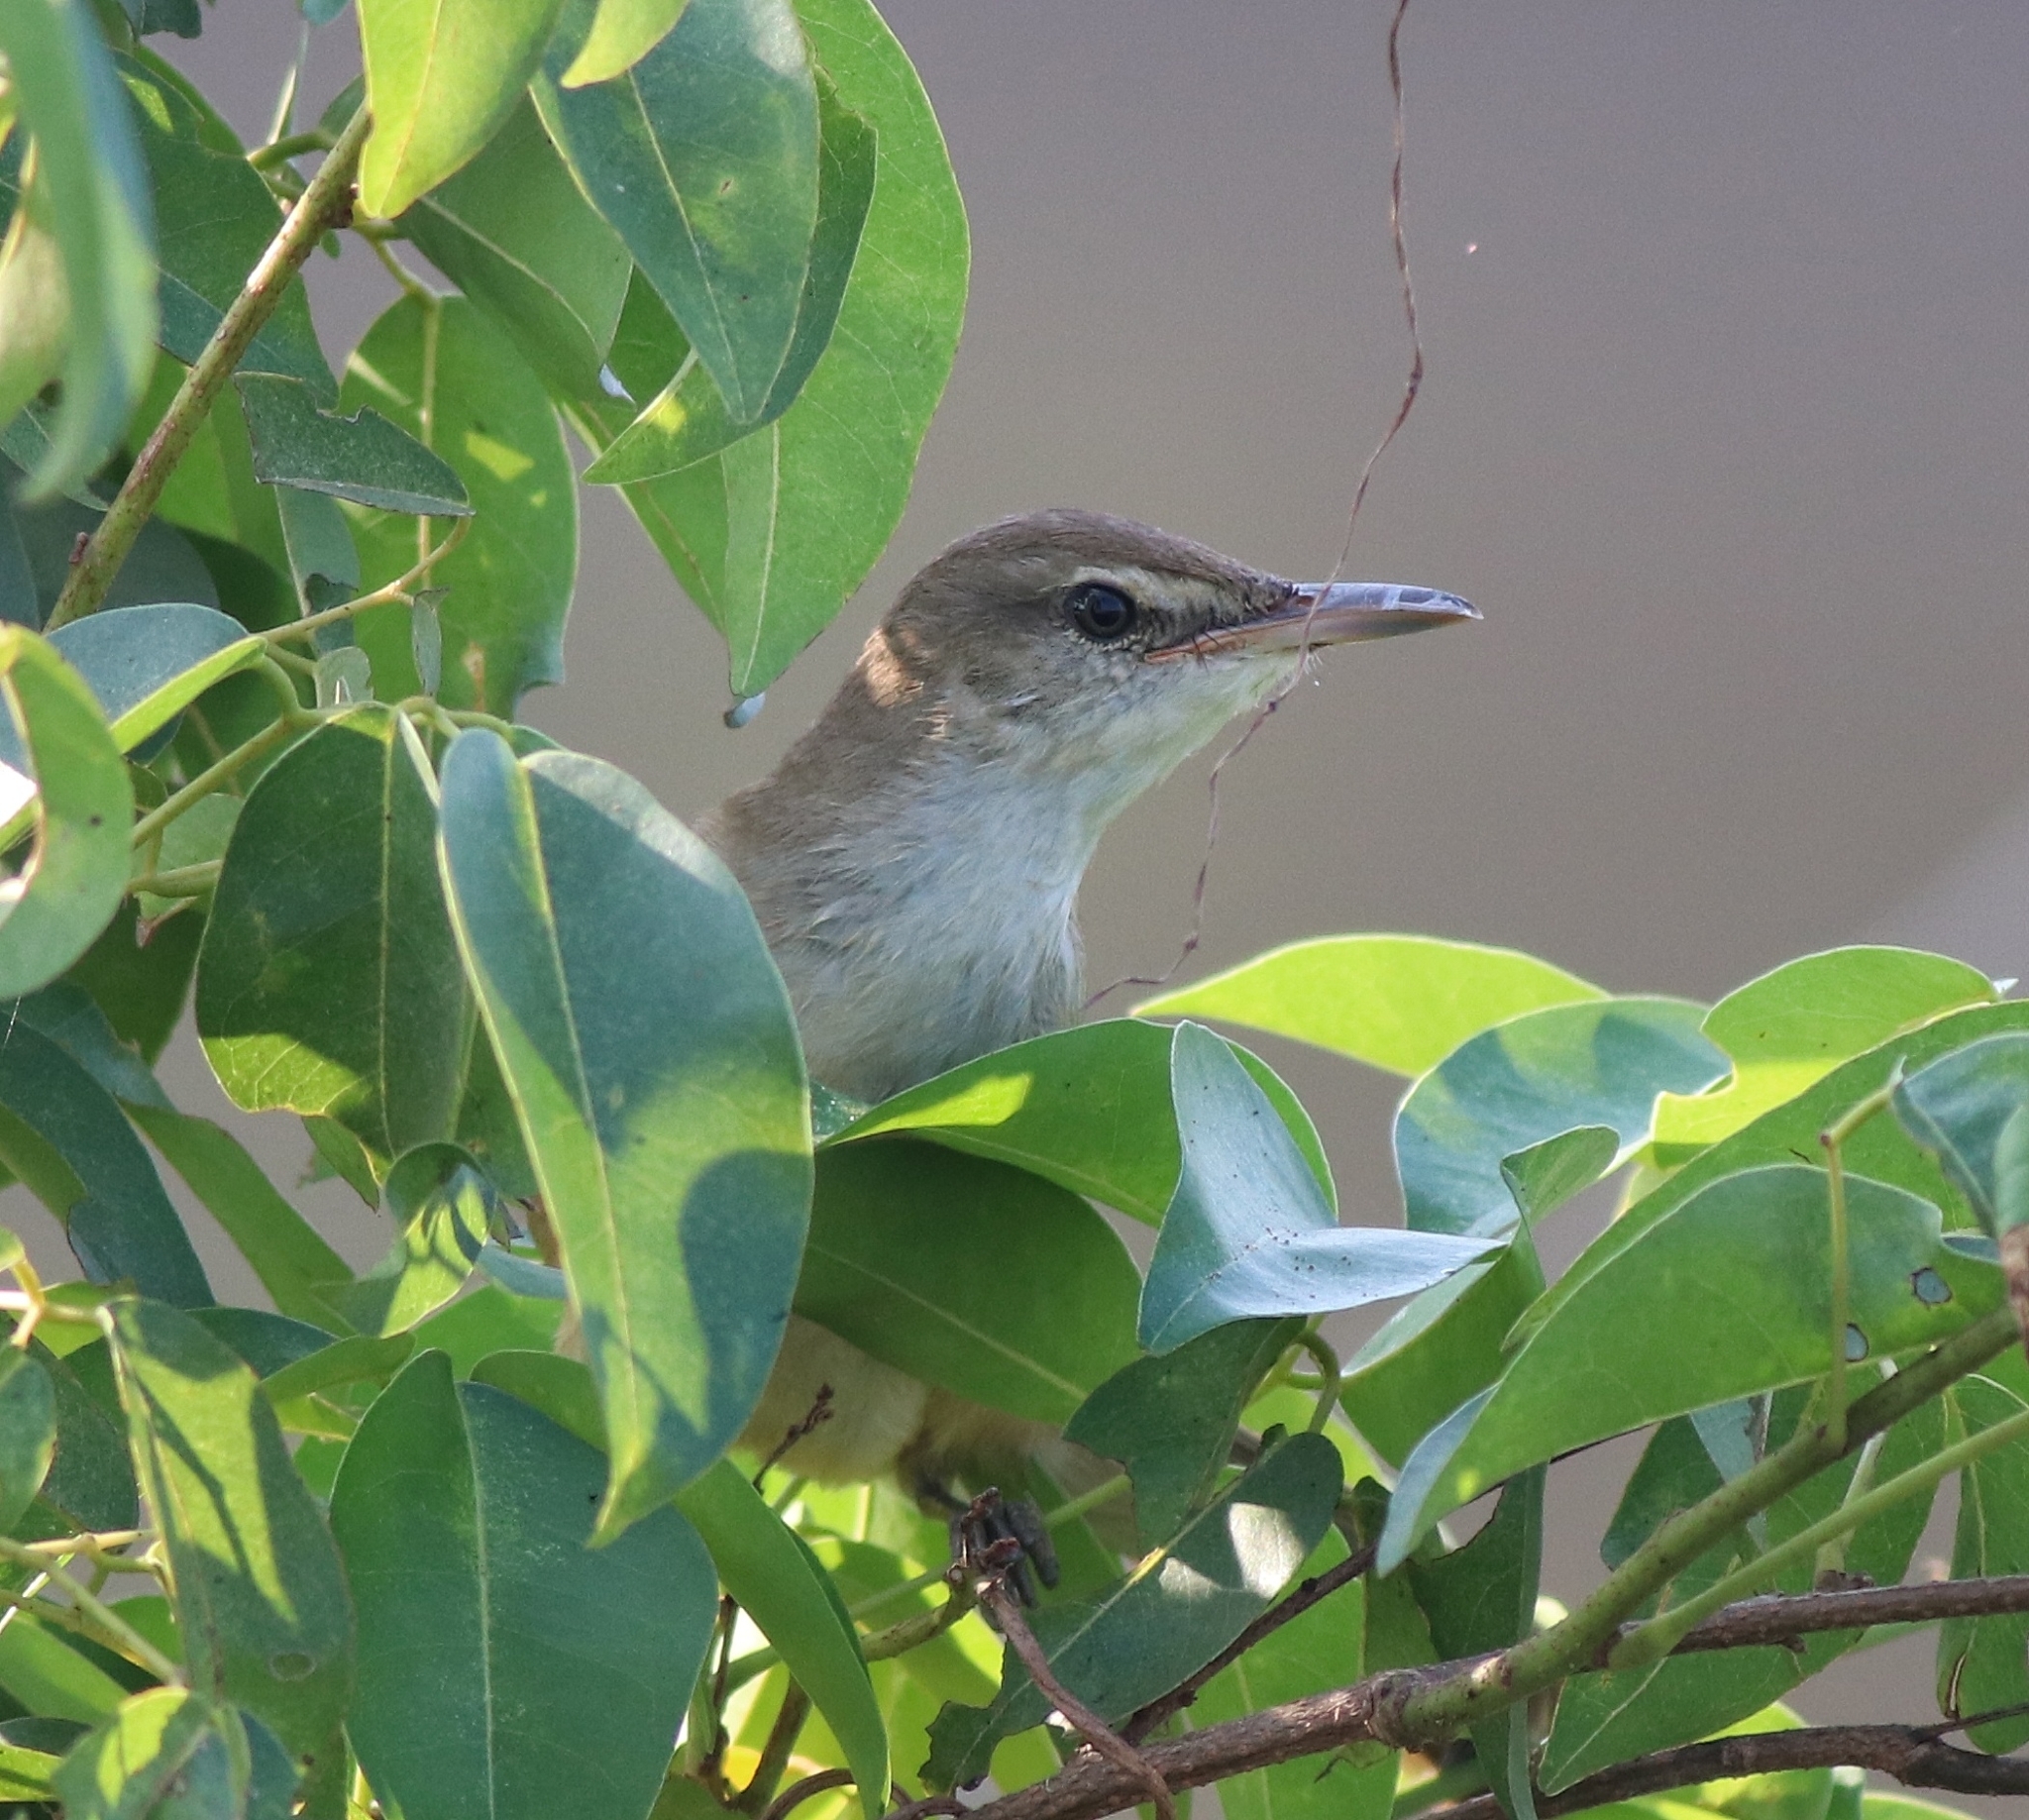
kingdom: Animalia
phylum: Chordata
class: Aves
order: Passeriformes
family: Acrocephalidae
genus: Acrocephalus
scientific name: Acrocephalus stentoreus
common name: Clamorous reed warbler
